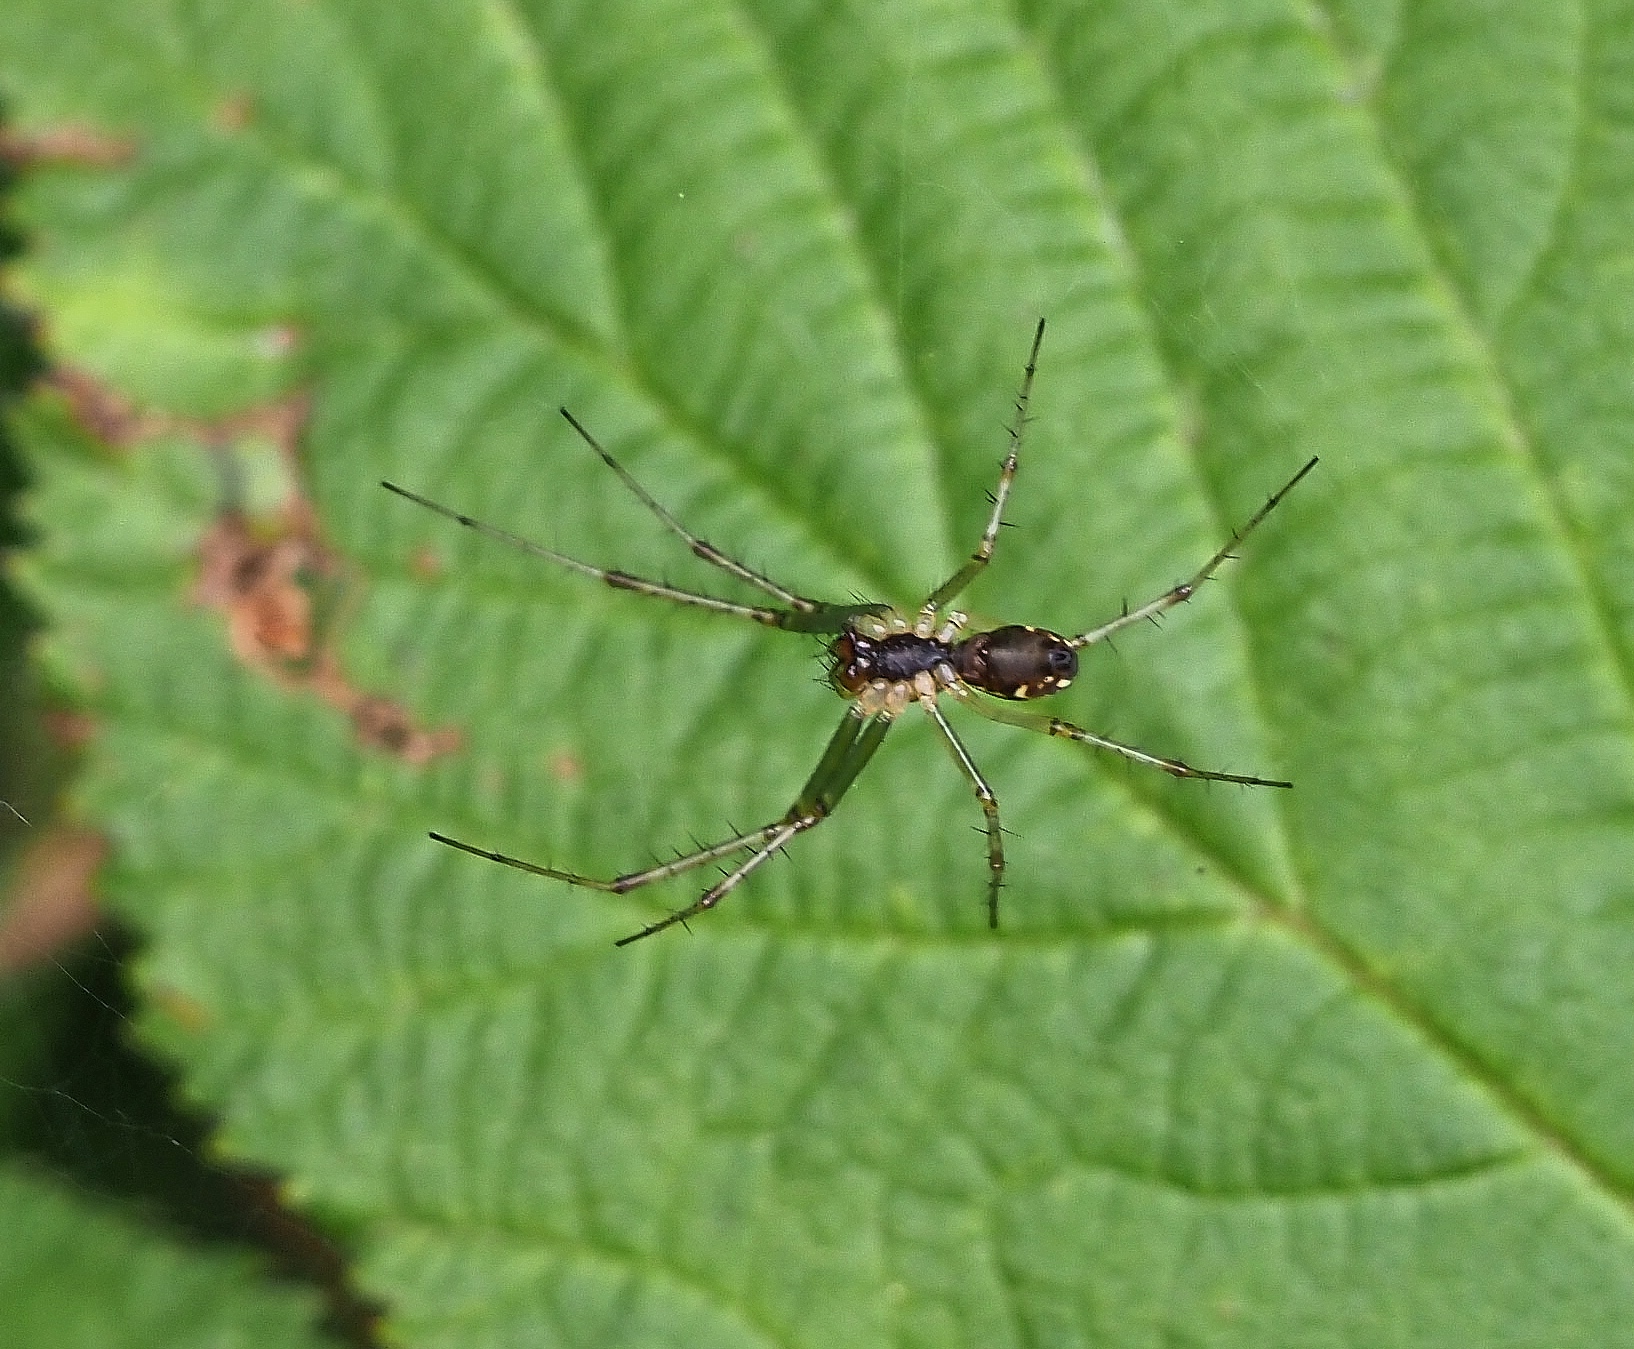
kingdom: Animalia
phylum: Arthropoda
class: Arachnida
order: Araneae
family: Linyphiidae
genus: Linyphia
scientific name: Linyphia triangularis
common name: Money spider
